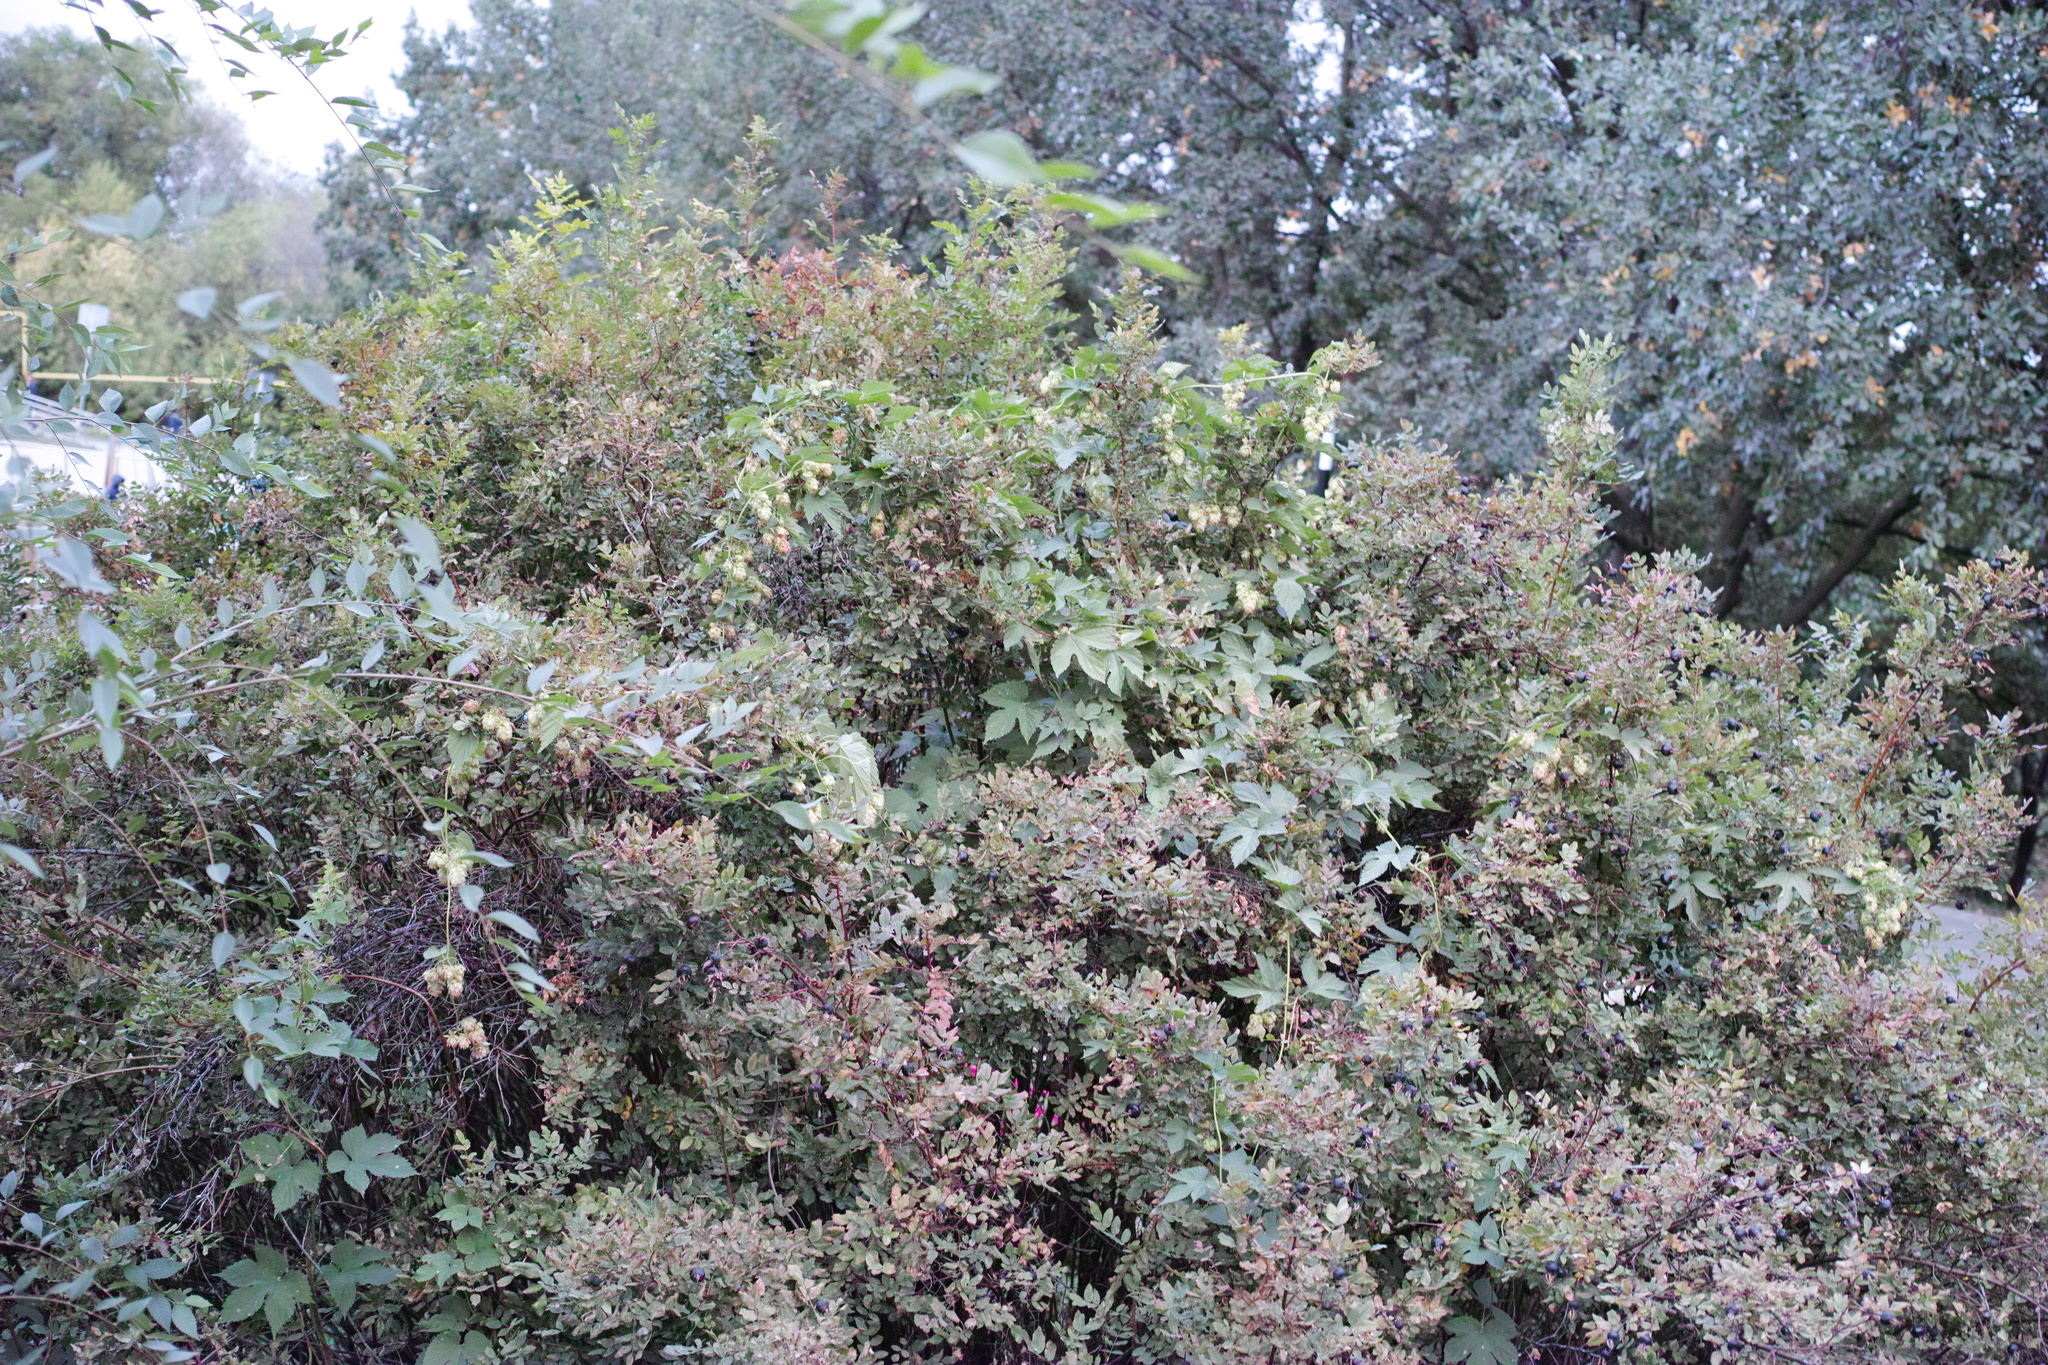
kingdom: Plantae
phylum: Tracheophyta
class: Magnoliopsida
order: Rosales
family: Cannabaceae
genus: Humulus
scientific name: Humulus lupulus
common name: Hop
